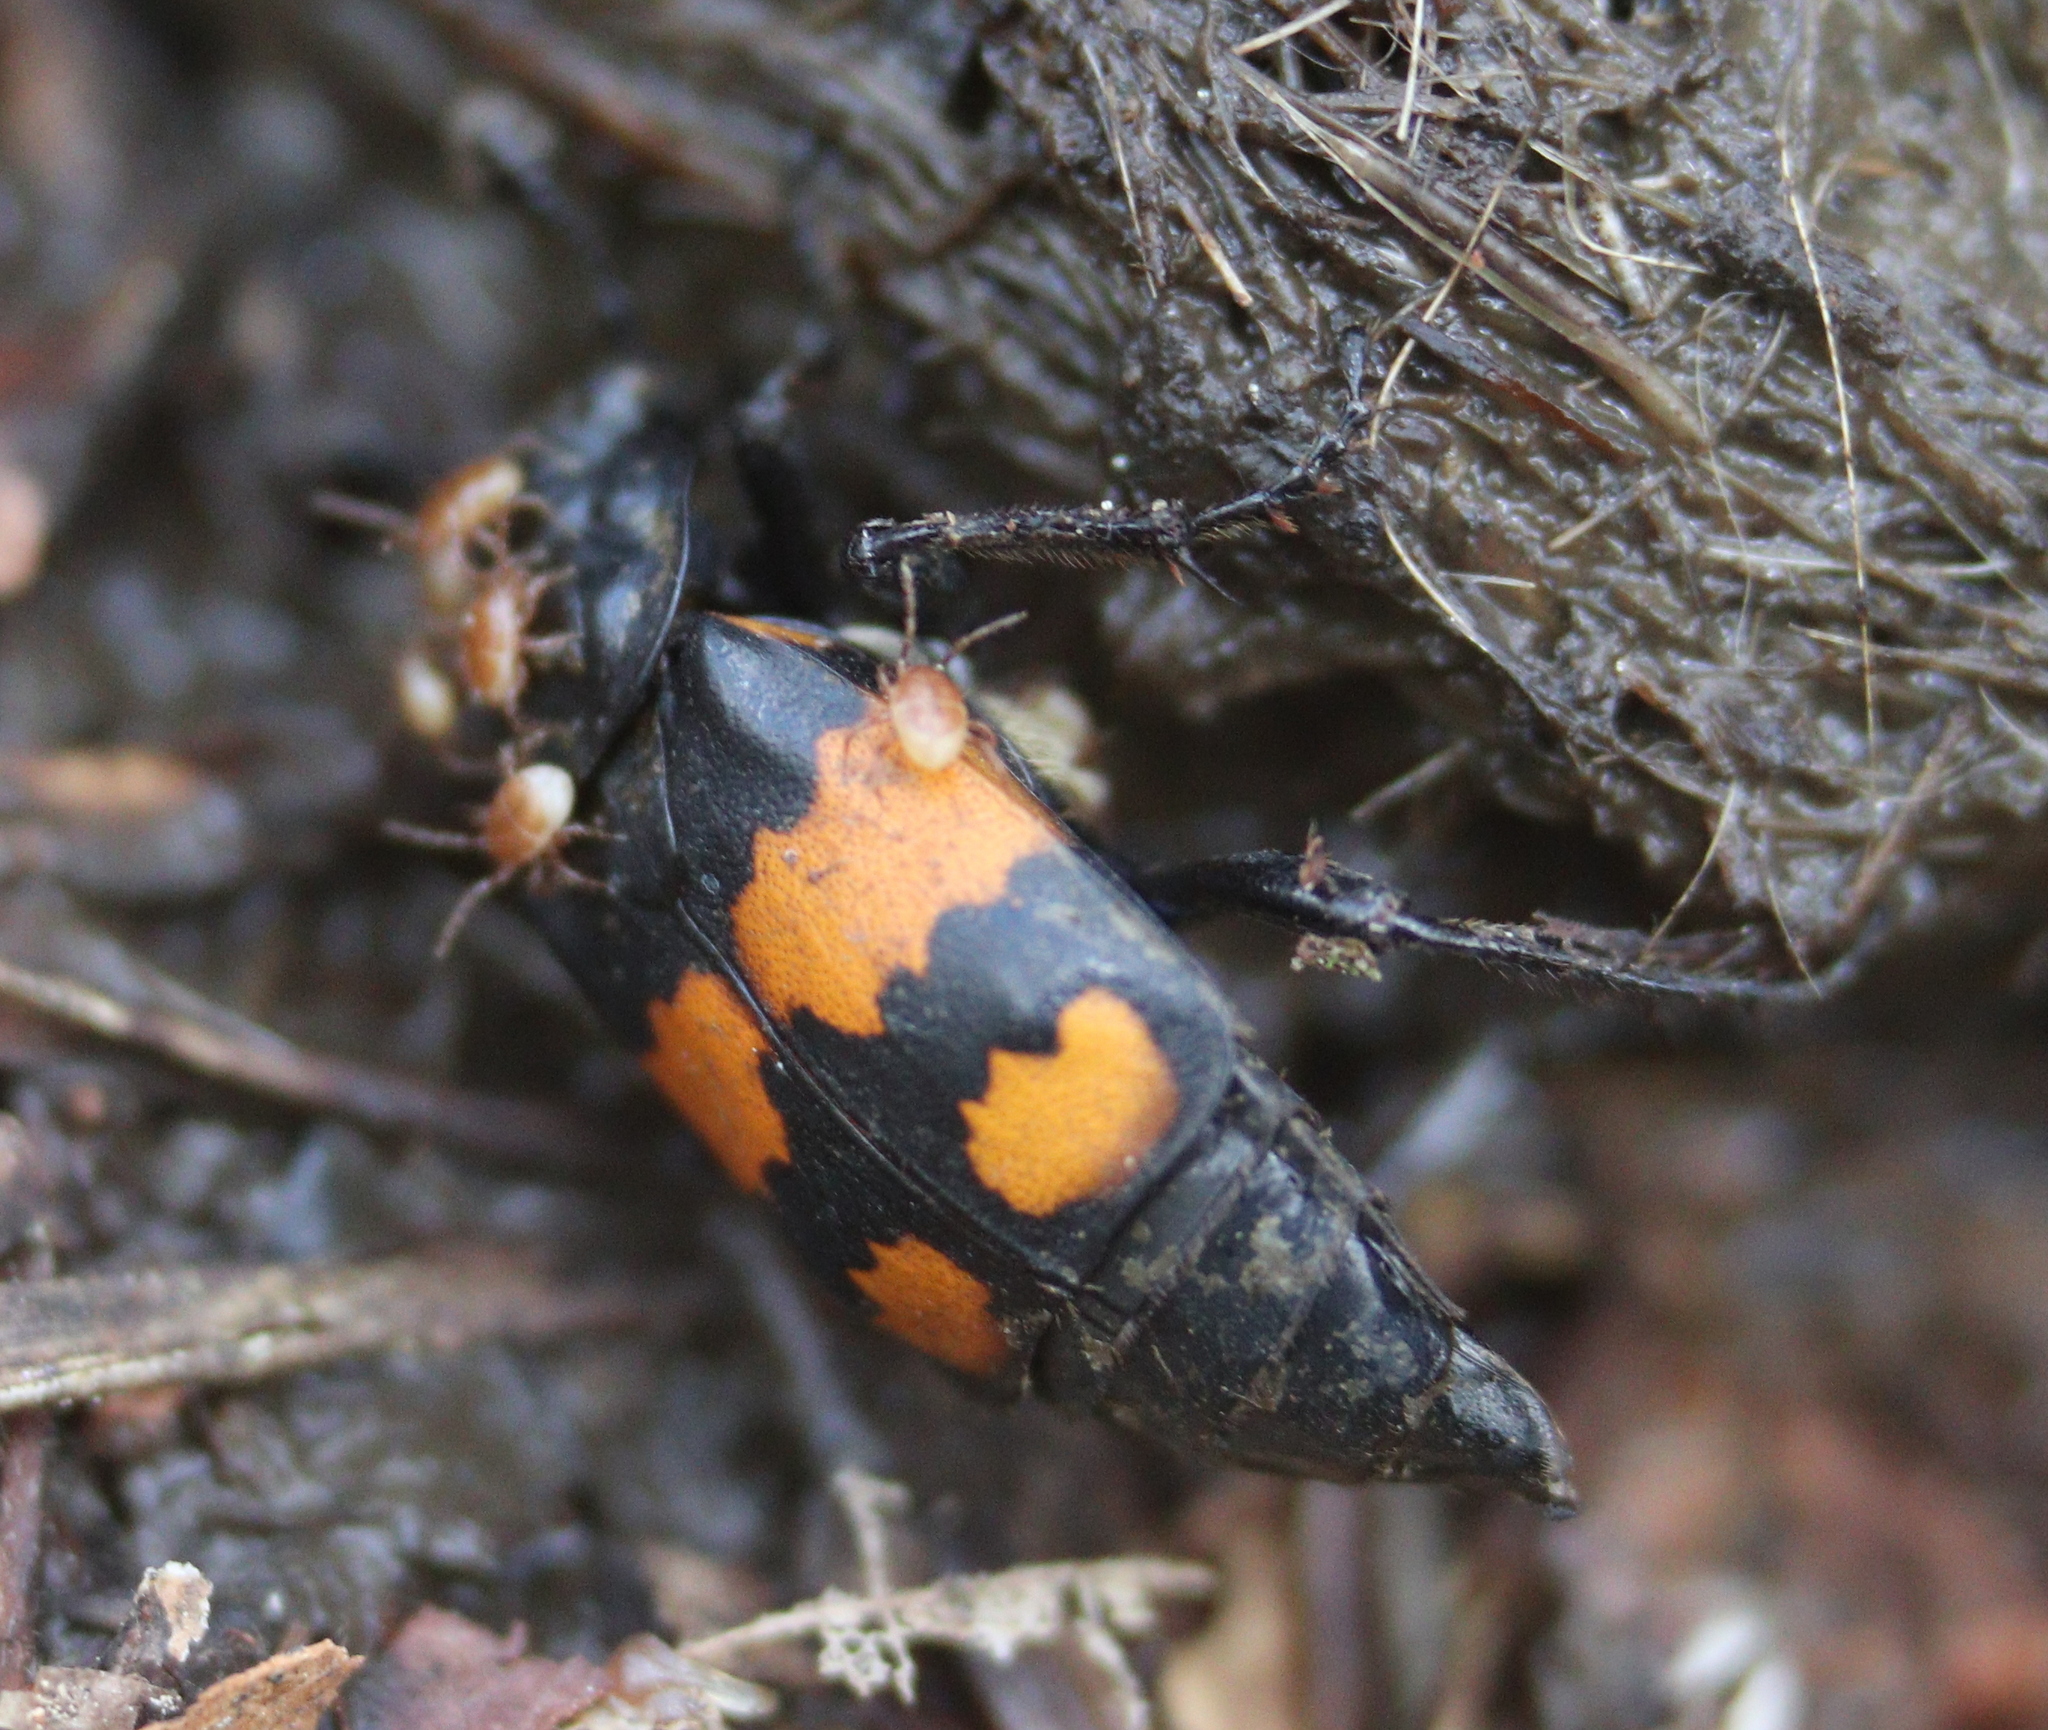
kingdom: Animalia
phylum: Arthropoda
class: Insecta
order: Coleoptera
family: Staphylinidae
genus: Nicrophorus
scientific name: Nicrophorus vespilloides
